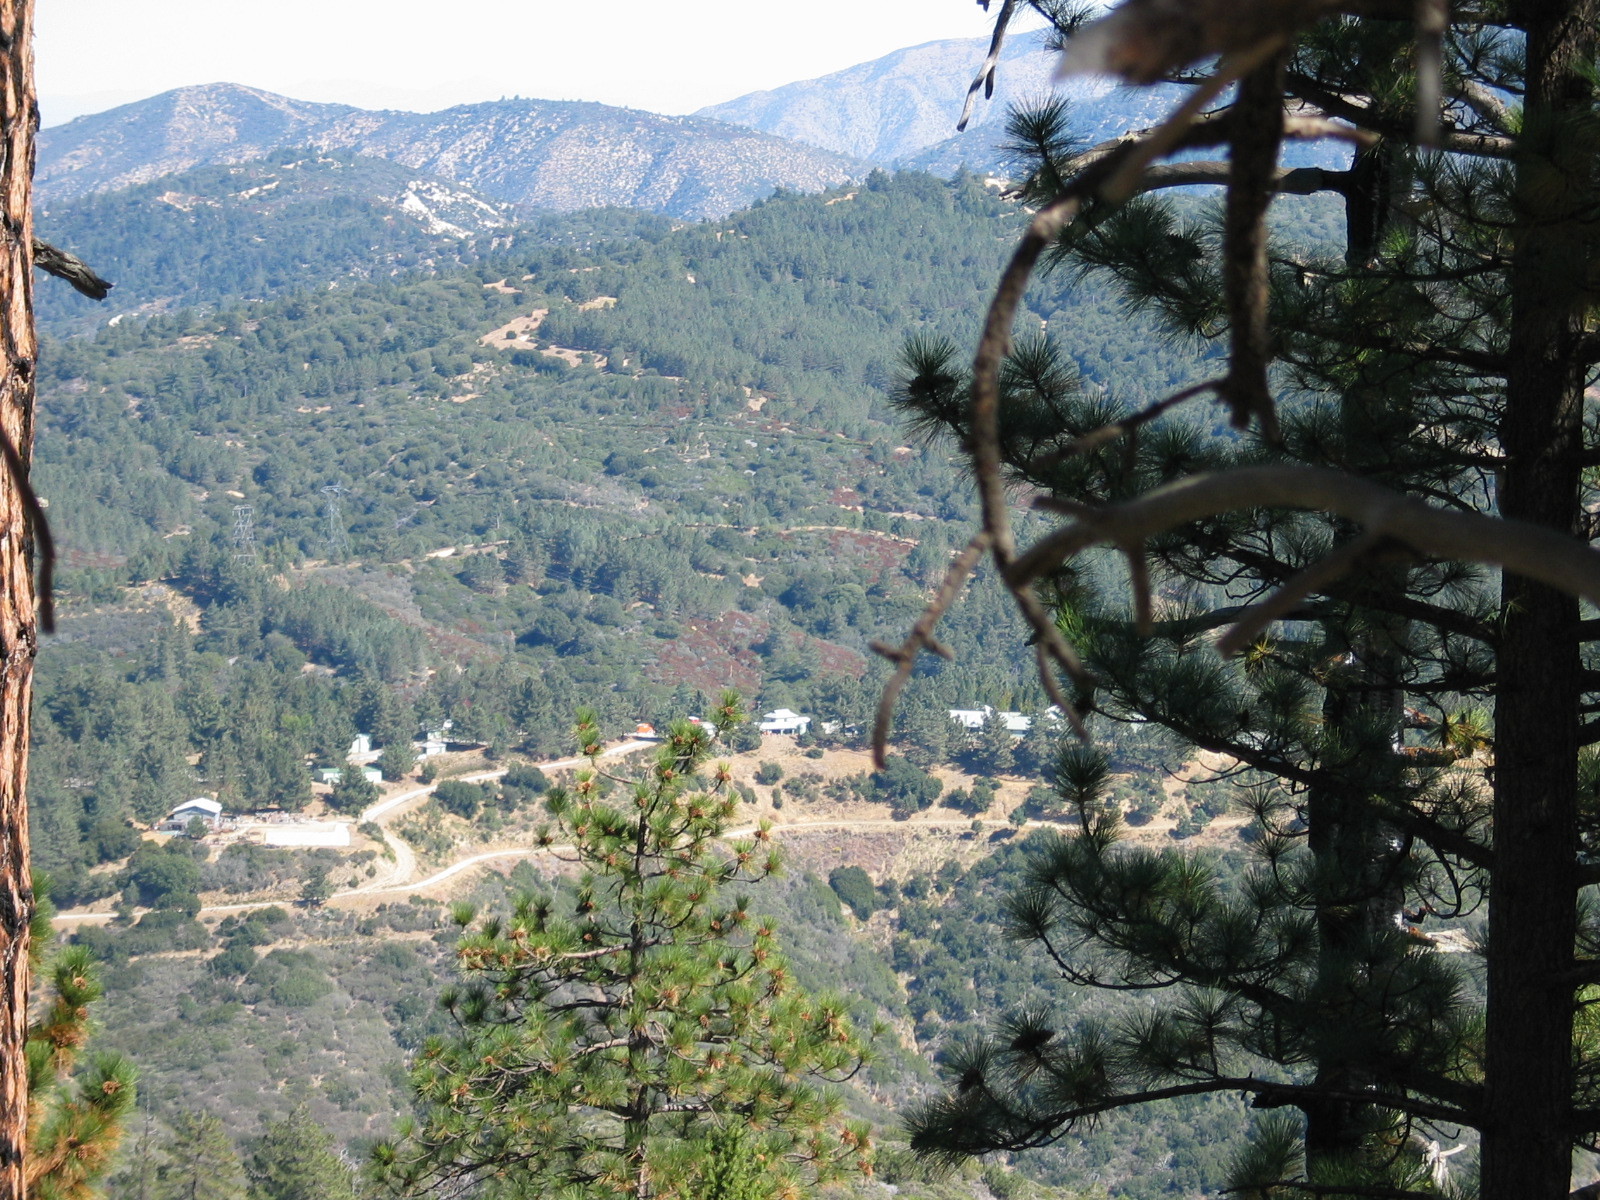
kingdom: Plantae
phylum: Tracheophyta
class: Pinopsida
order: Pinales
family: Pinaceae
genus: Pinus
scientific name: Pinus ponderosa
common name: Western yellow-pine
